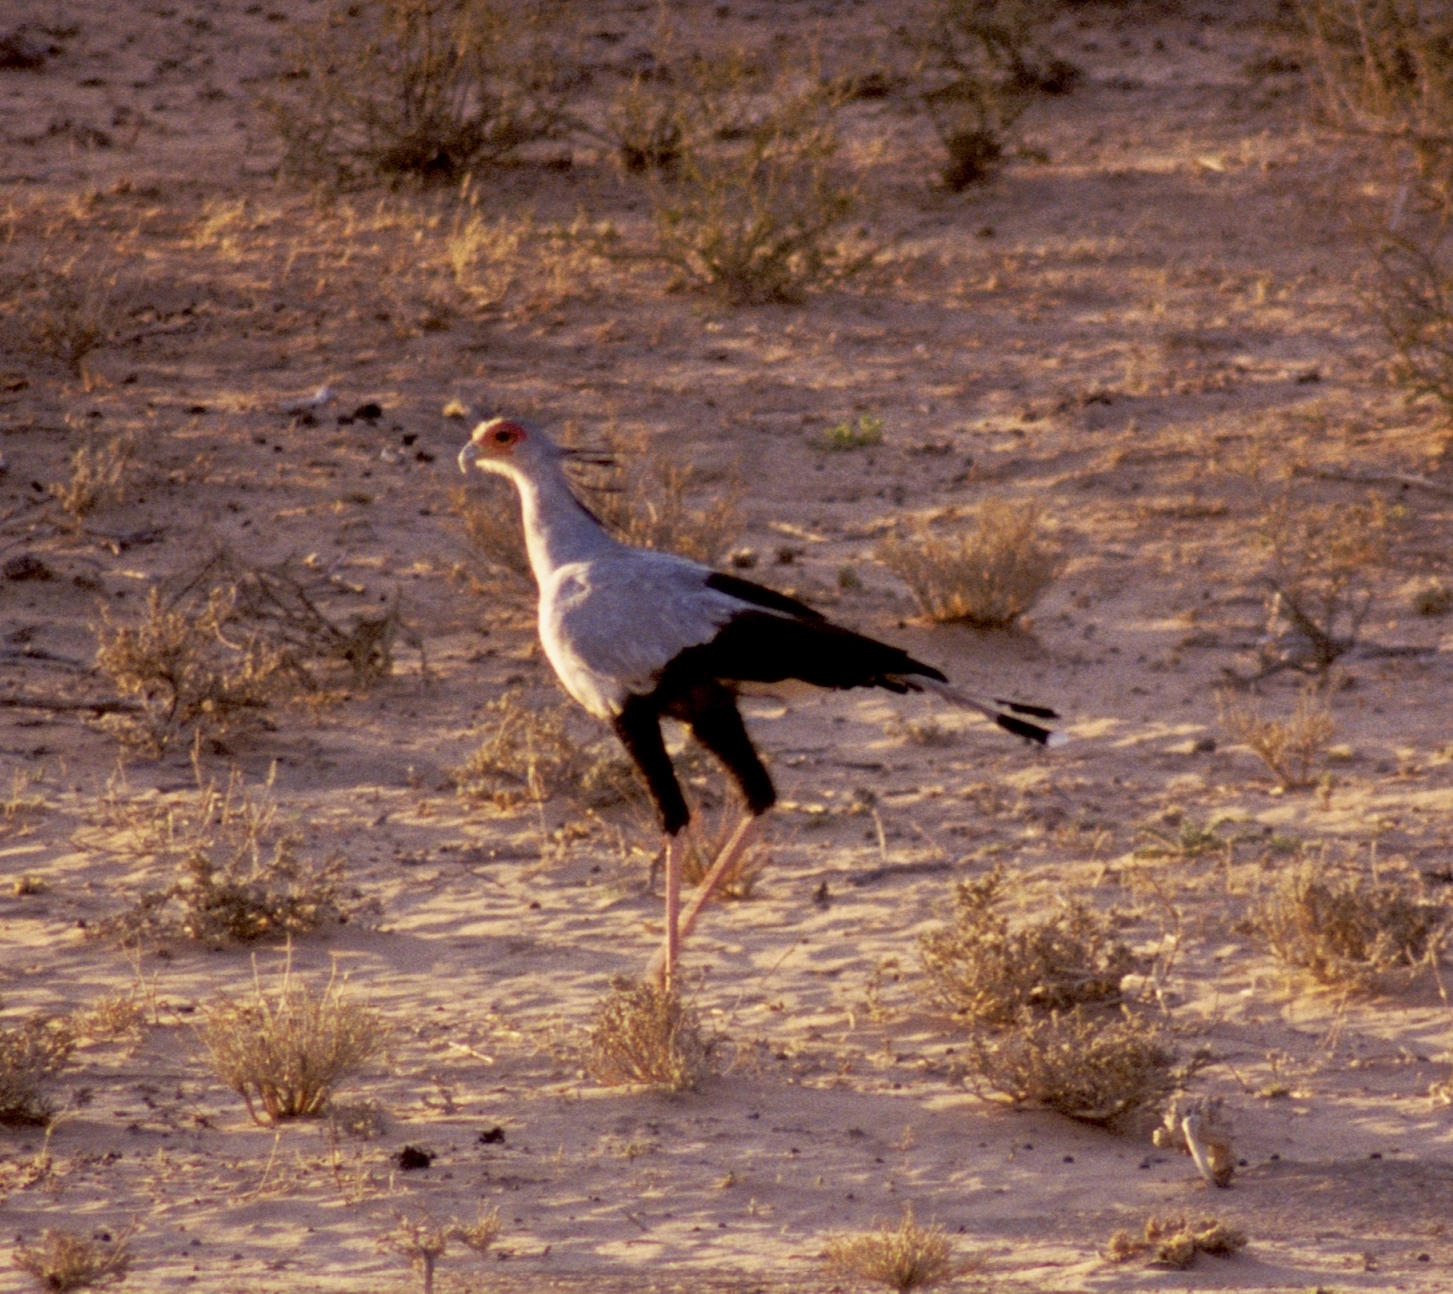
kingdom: Animalia
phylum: Chordata
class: Aves
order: Accipitriformes
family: Sagittariidae
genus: Sagittarius
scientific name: Sagittarius serpentarius
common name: Secretarybird
